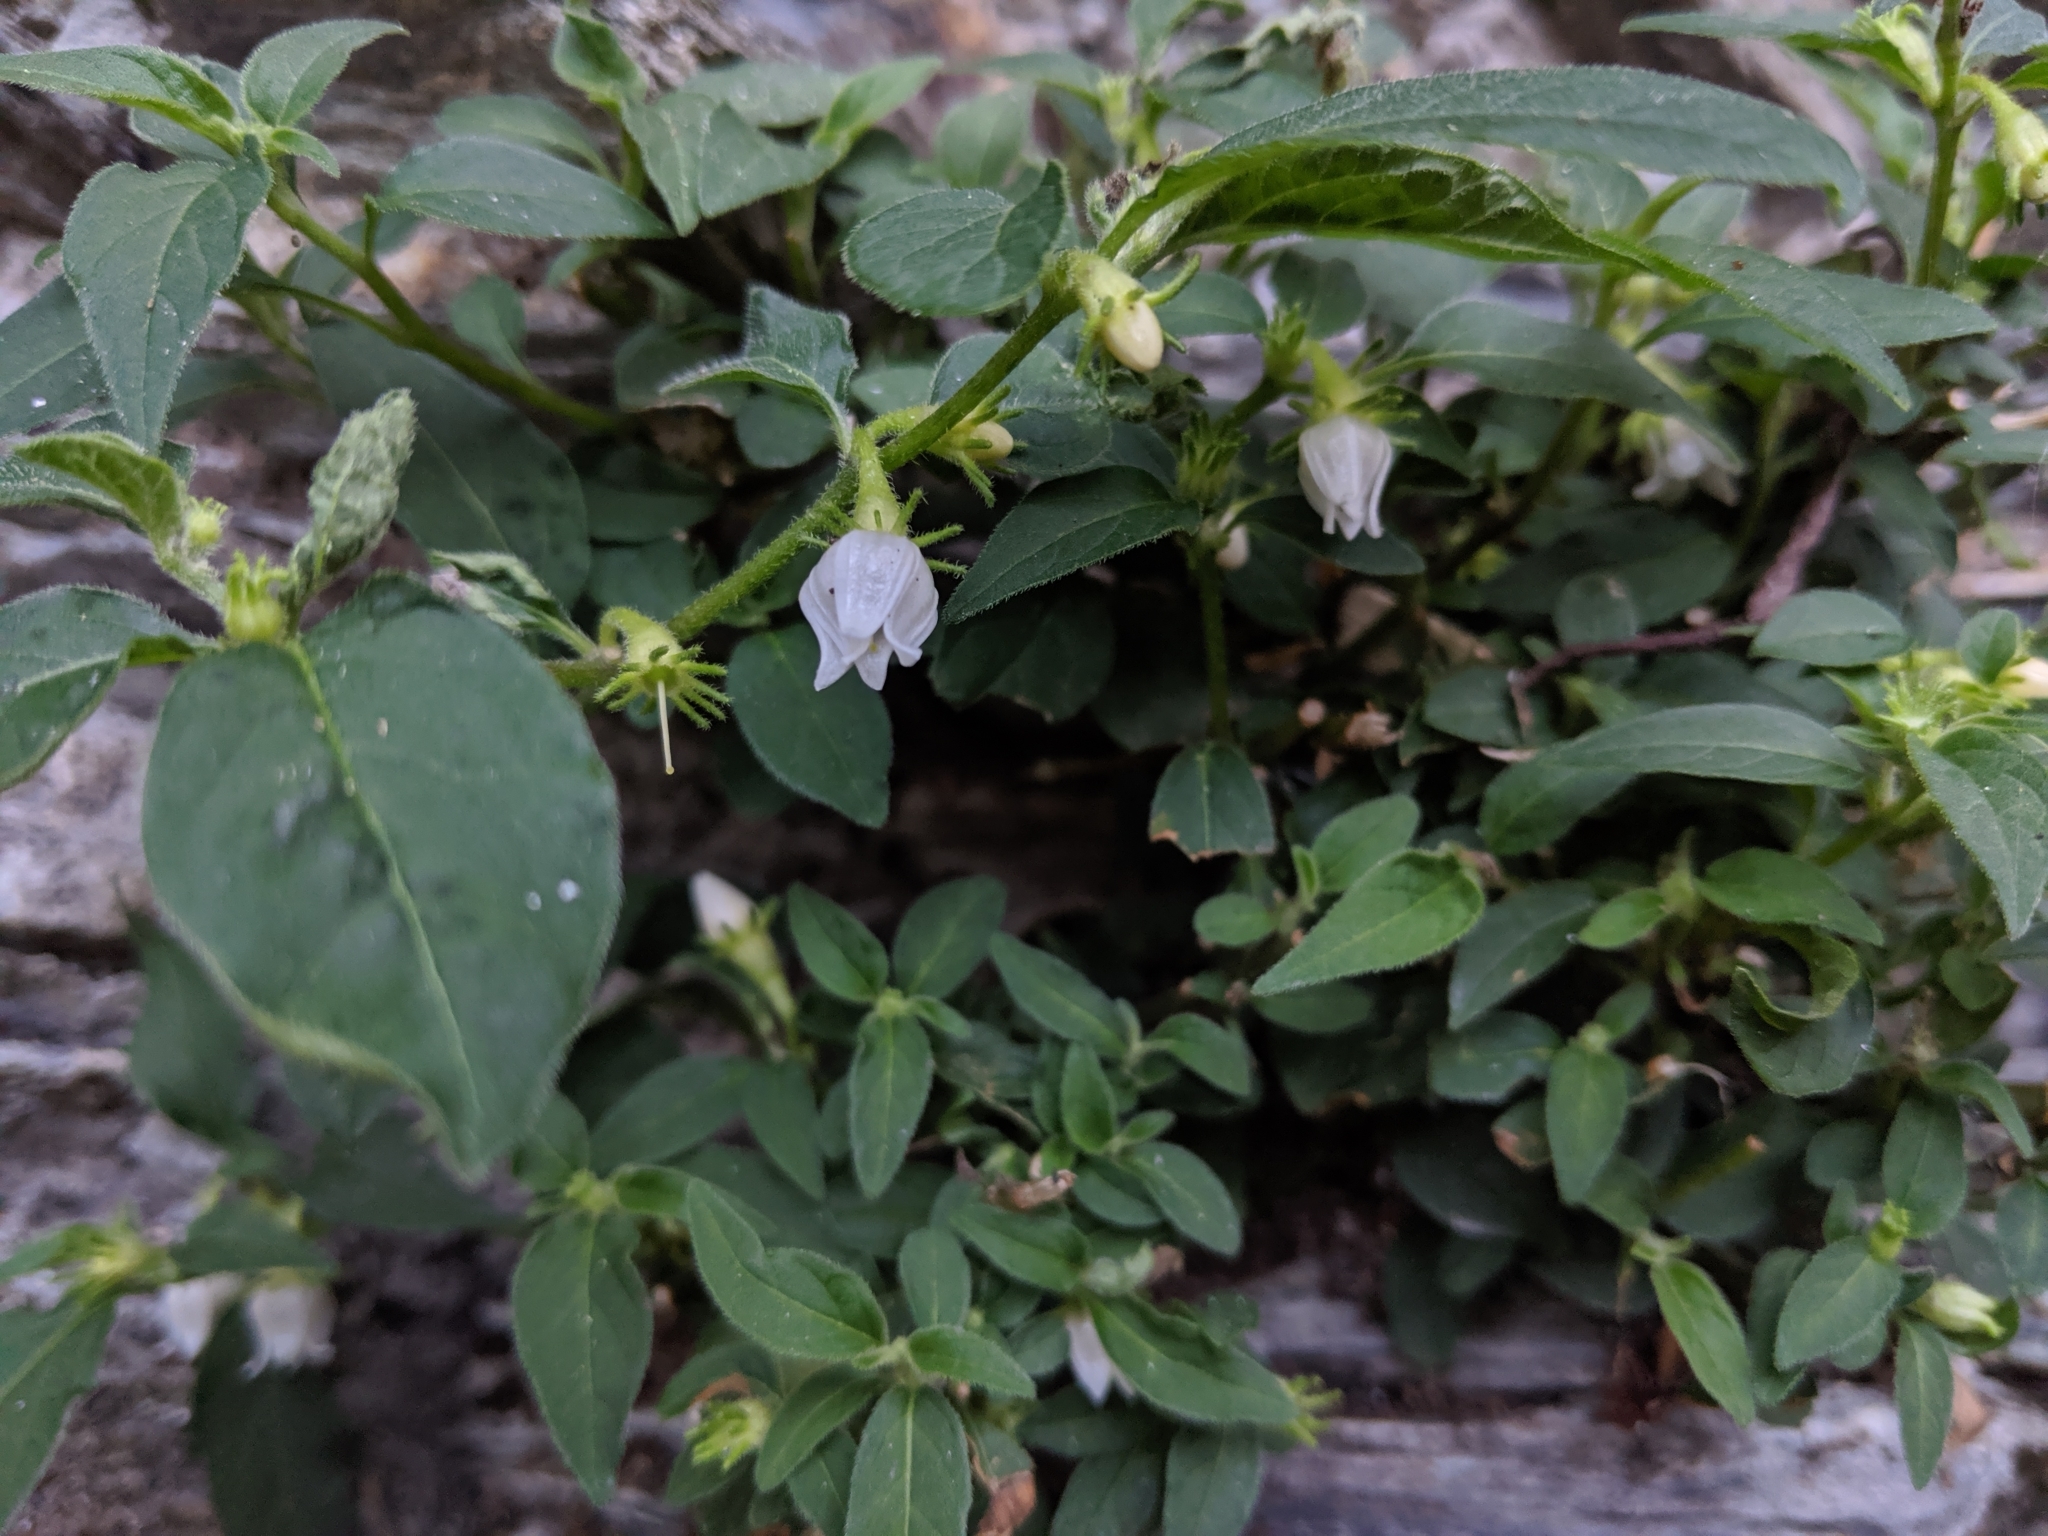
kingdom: Plantae
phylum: Tracheophyta
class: Magnoliopsida
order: Solanales
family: Solanaceae
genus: Lycianthes
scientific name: Lycianthes biflora
